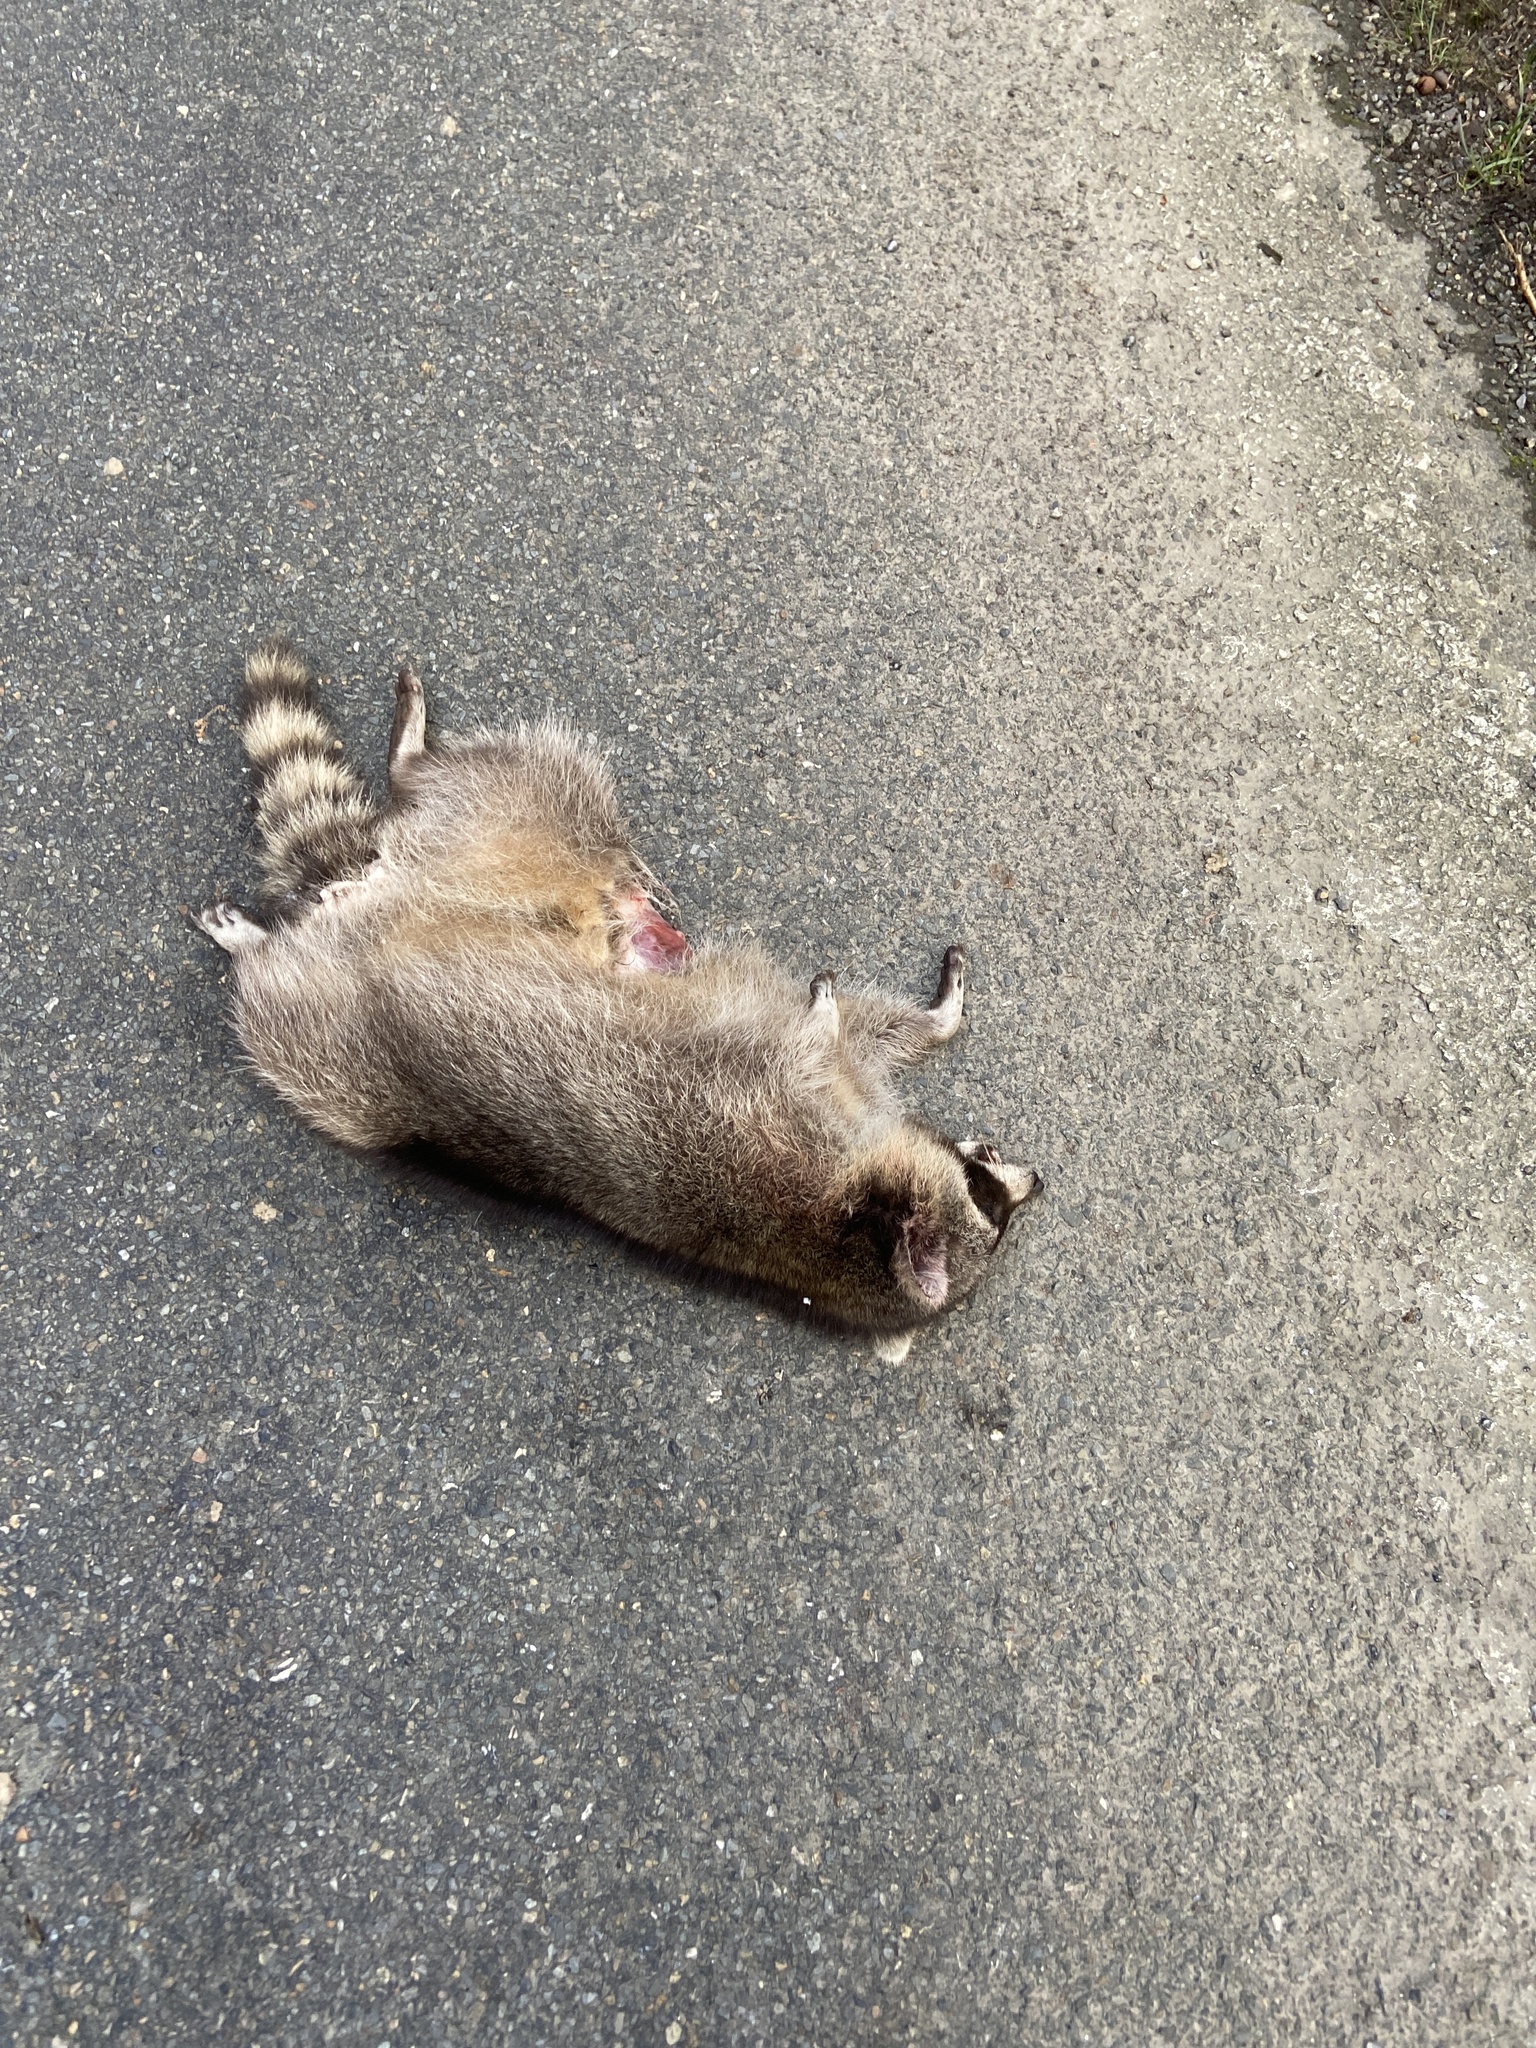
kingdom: Animalia
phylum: Chordata
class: Mammalia
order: Carnivora
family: Procyonidae
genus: Procyon
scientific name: Procyon lotor
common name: Raccoon
